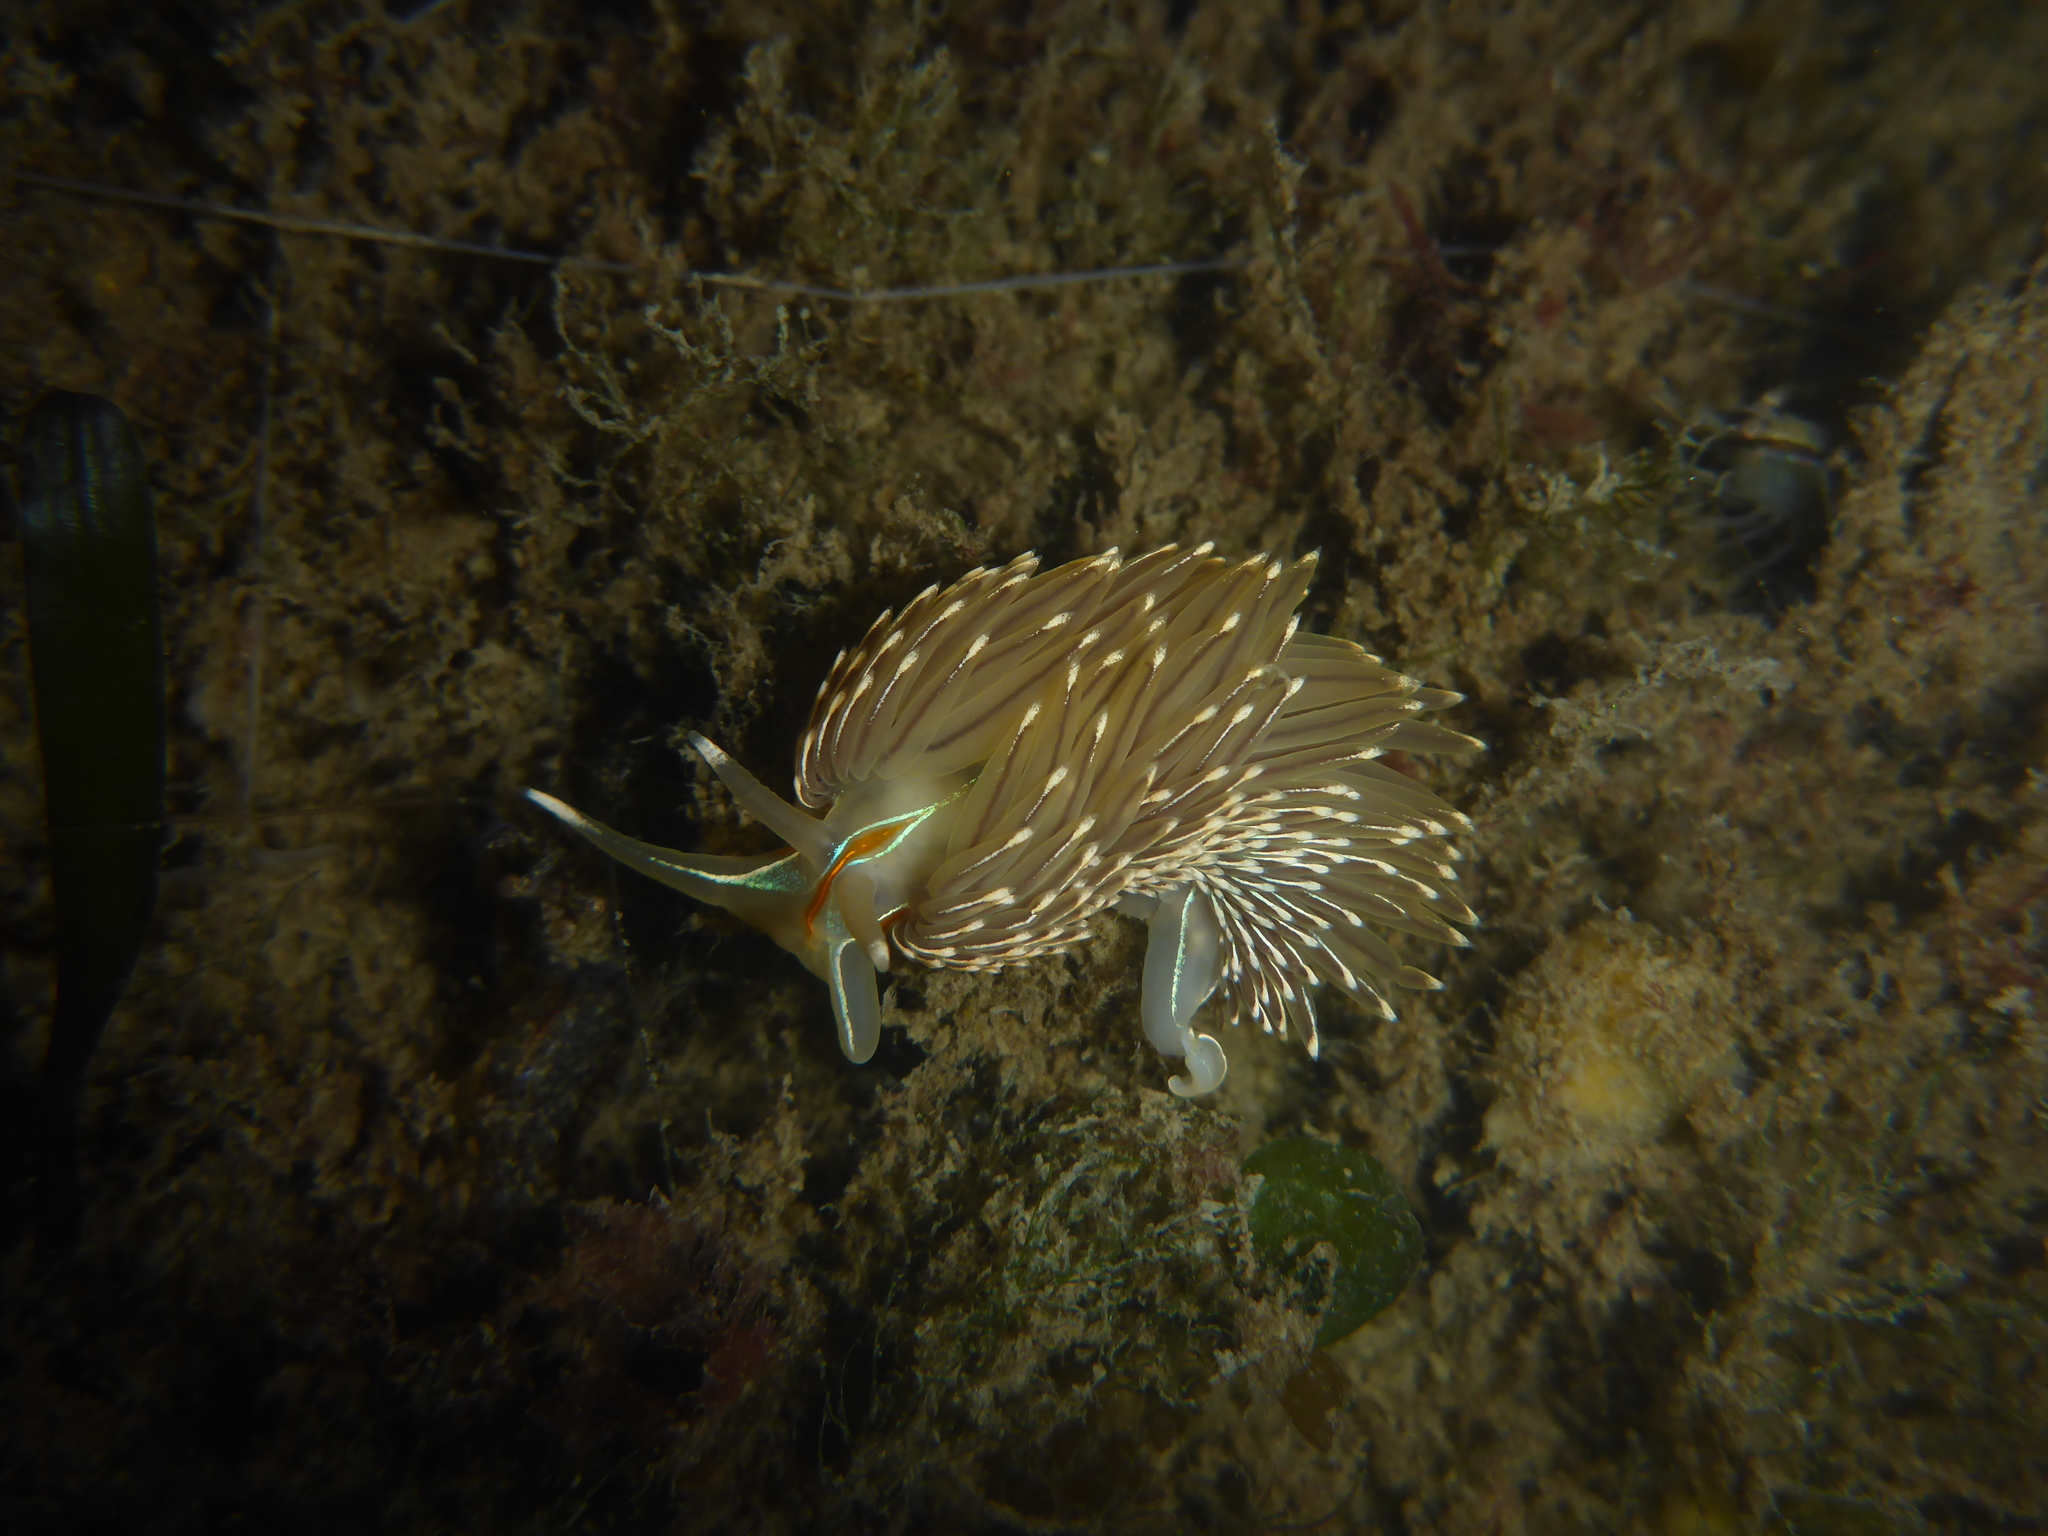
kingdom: Animalia
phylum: Mollusca
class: Gastropoda
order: Nudibranchia
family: Myrrhinidae
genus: Hermissenda
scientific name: Hermissenda crassicornis
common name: Hermissenda
